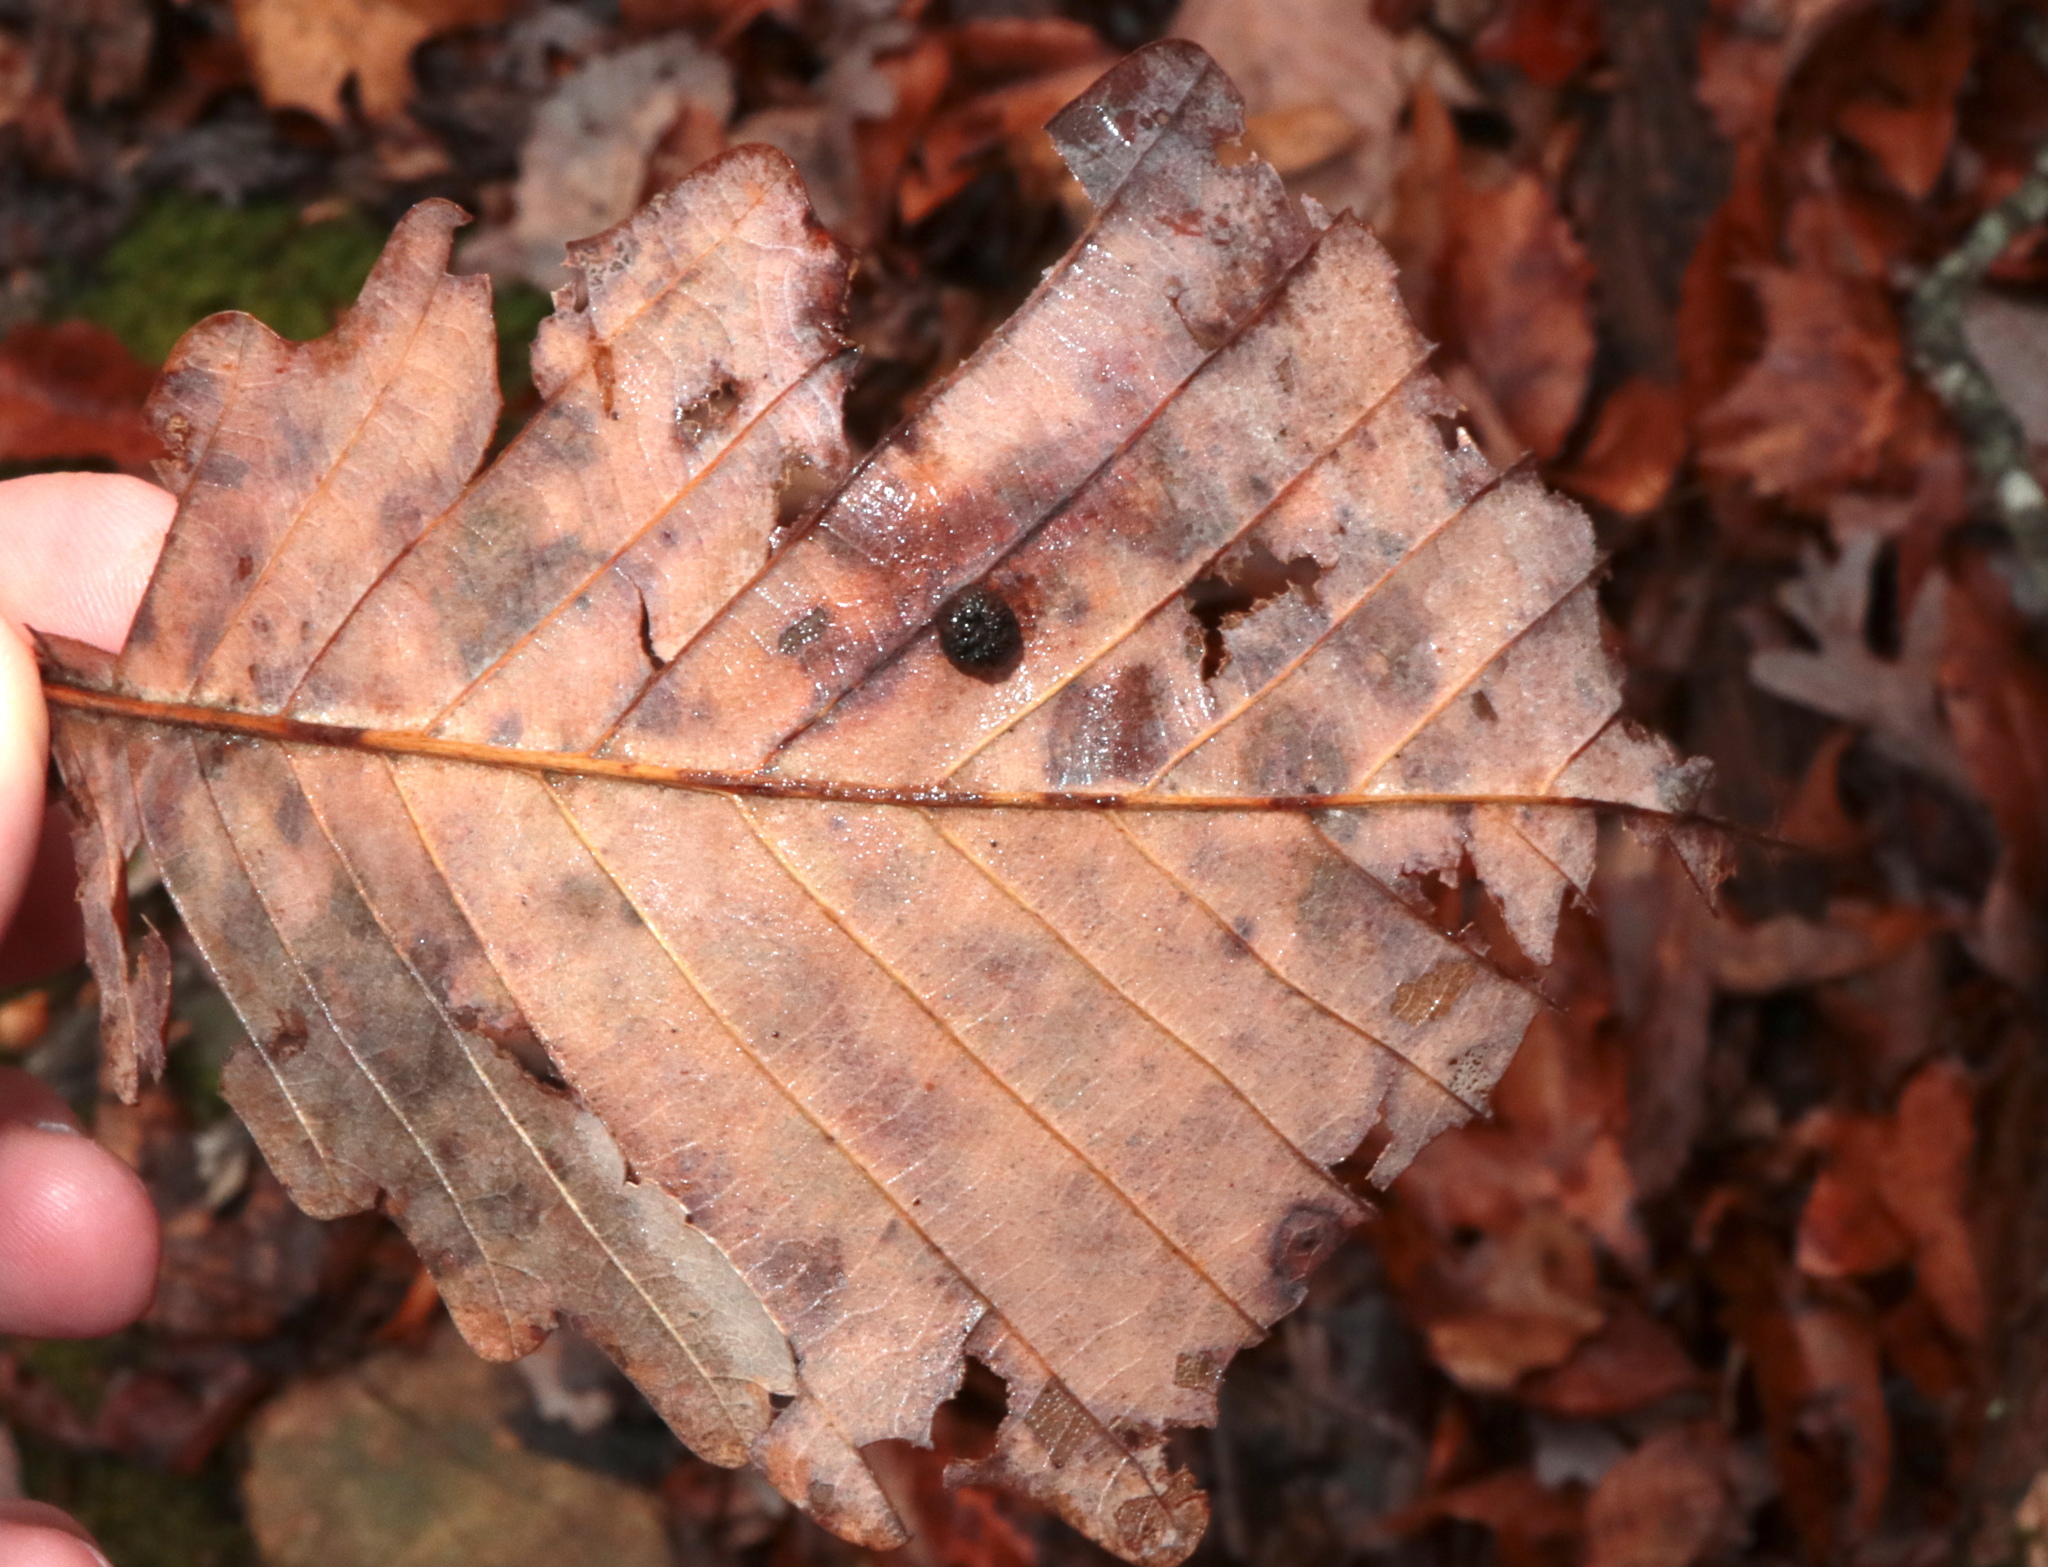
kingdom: Animalia
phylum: Arthropoda
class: Insecta
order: Hymenoptera
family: Cynipidae
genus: Acraspis
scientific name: Acraspis quercushirta
